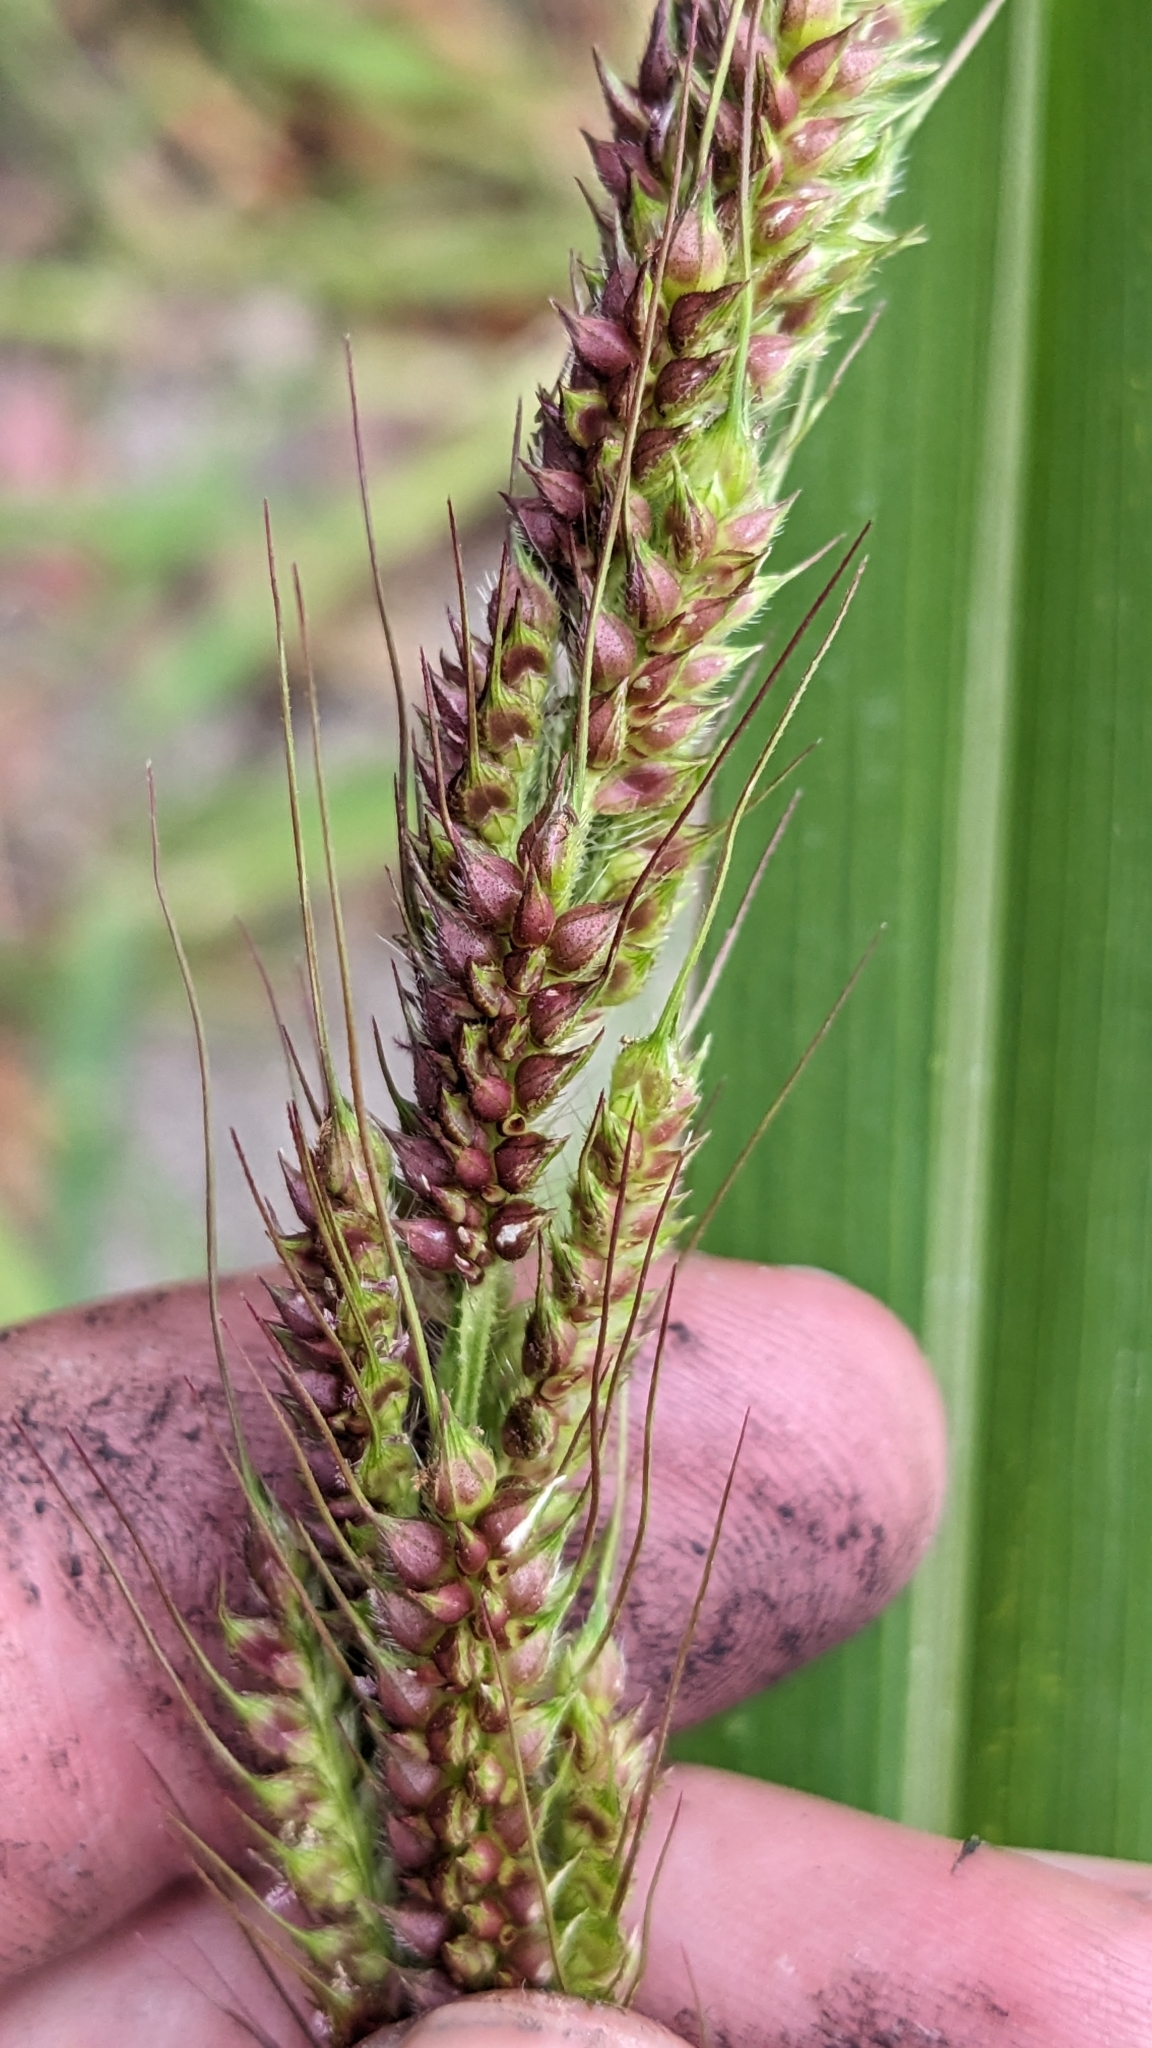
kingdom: Plantae
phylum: Tracheophyta
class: Liliopsida
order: Poales
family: Poaceae
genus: Echinochloa
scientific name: Echinochloa crus-galli
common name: Cockspur
